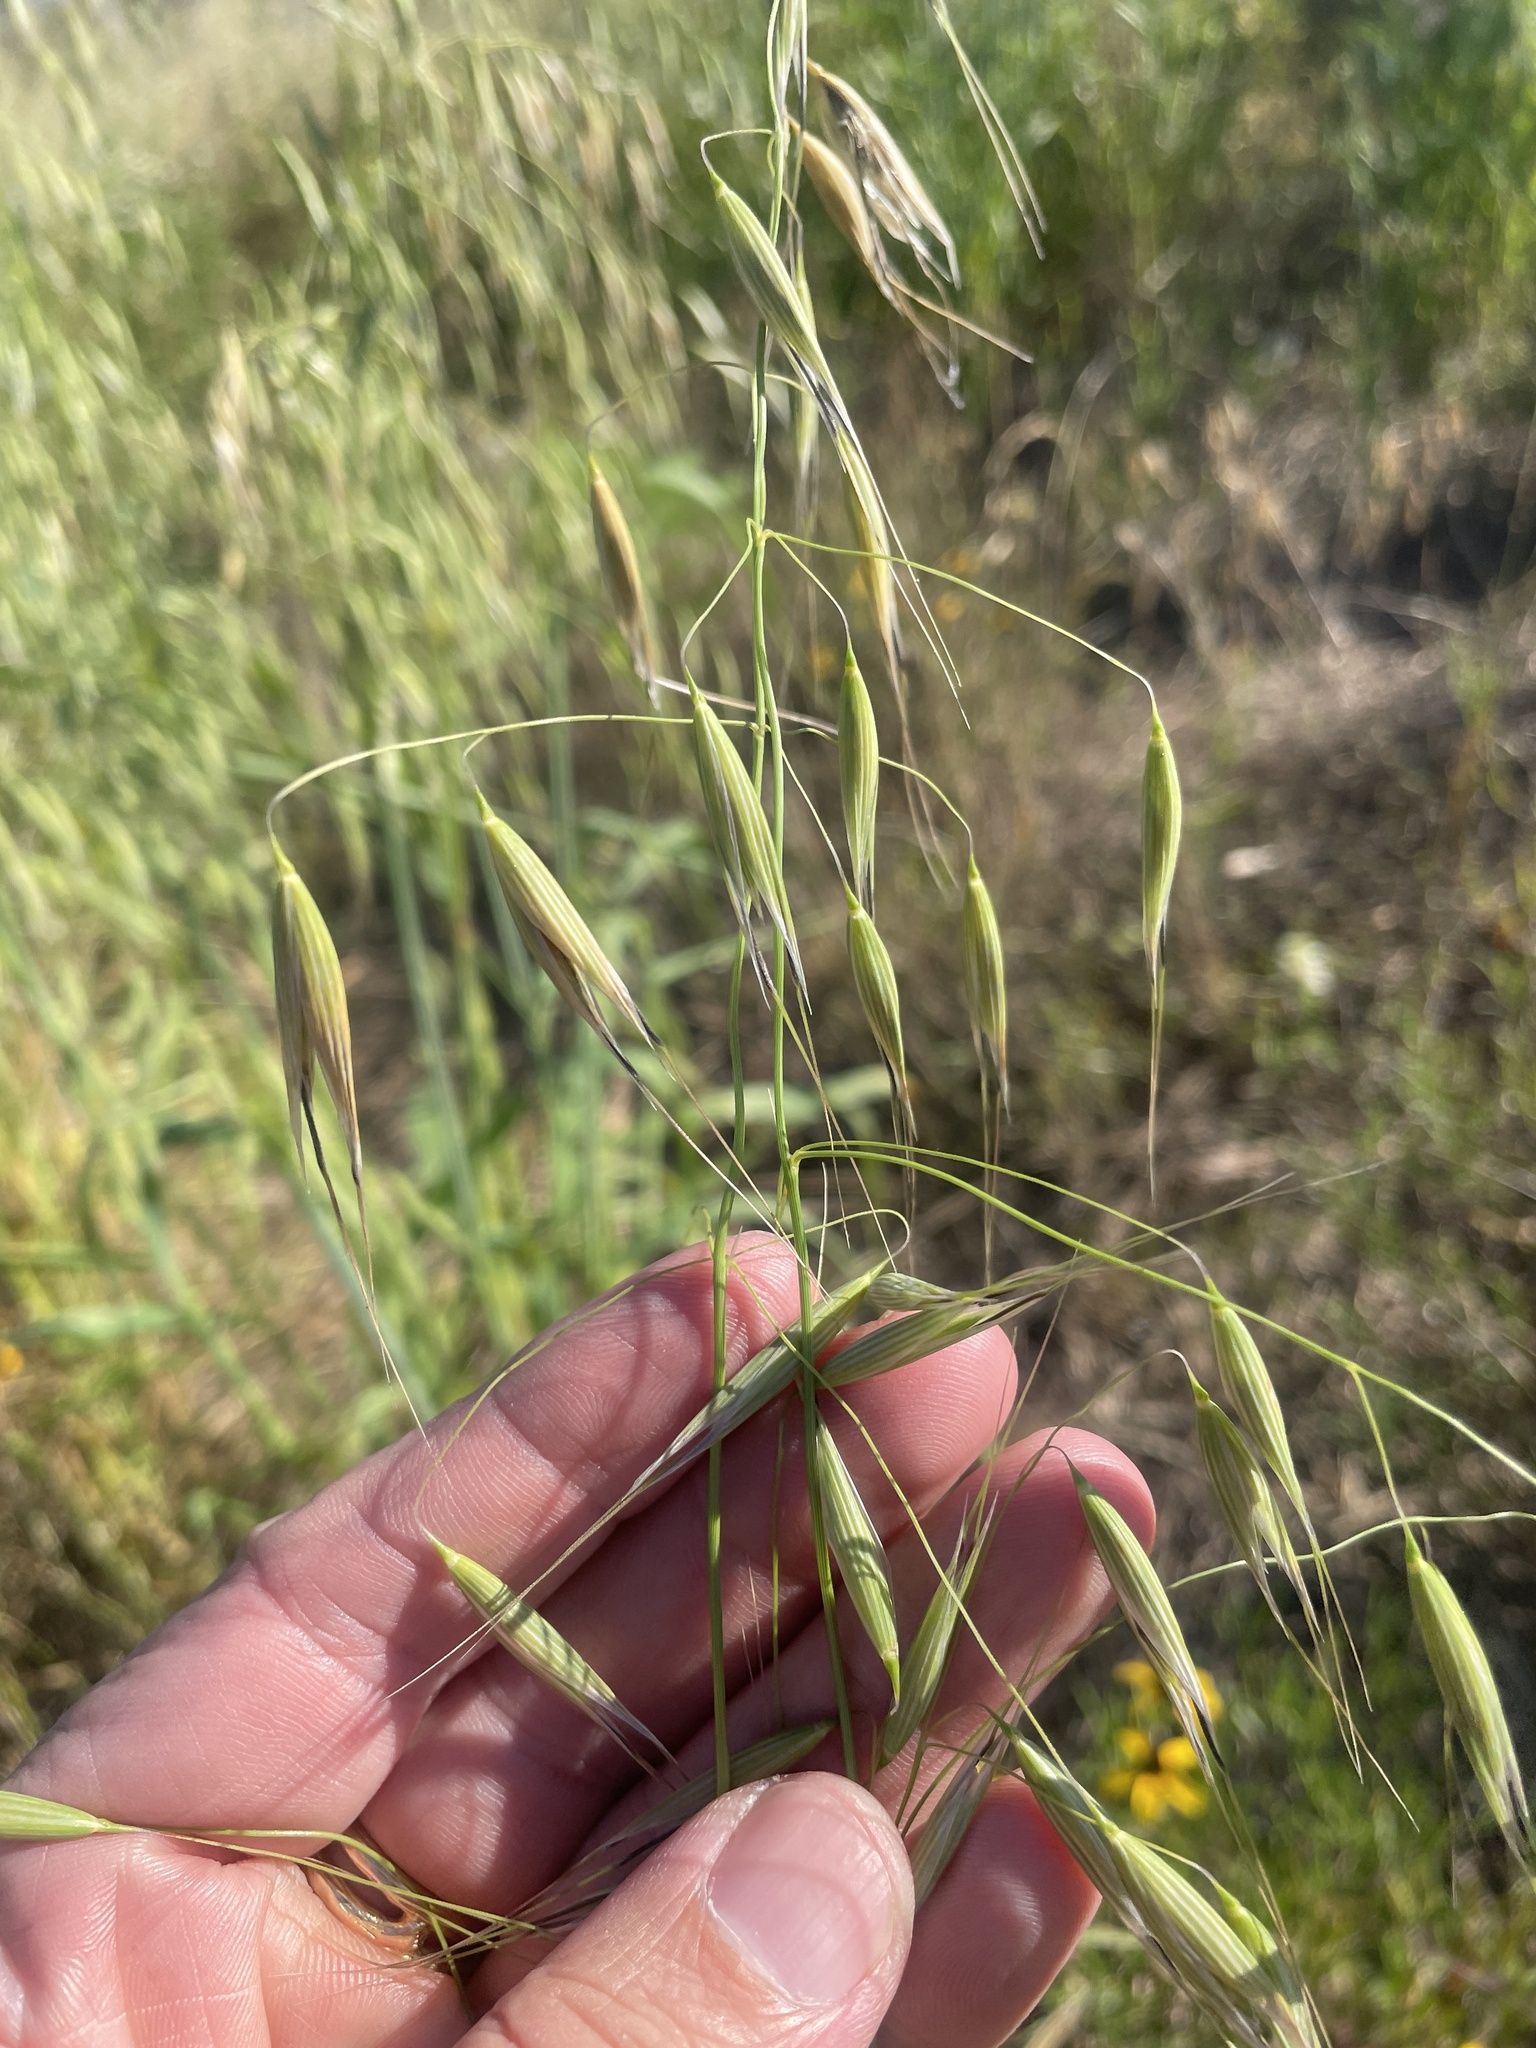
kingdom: Plantae
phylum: Tracheophyta
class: Liliopsida
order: Poales
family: Poaceae
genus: Avena
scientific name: Avena fatua
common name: Wild oat
